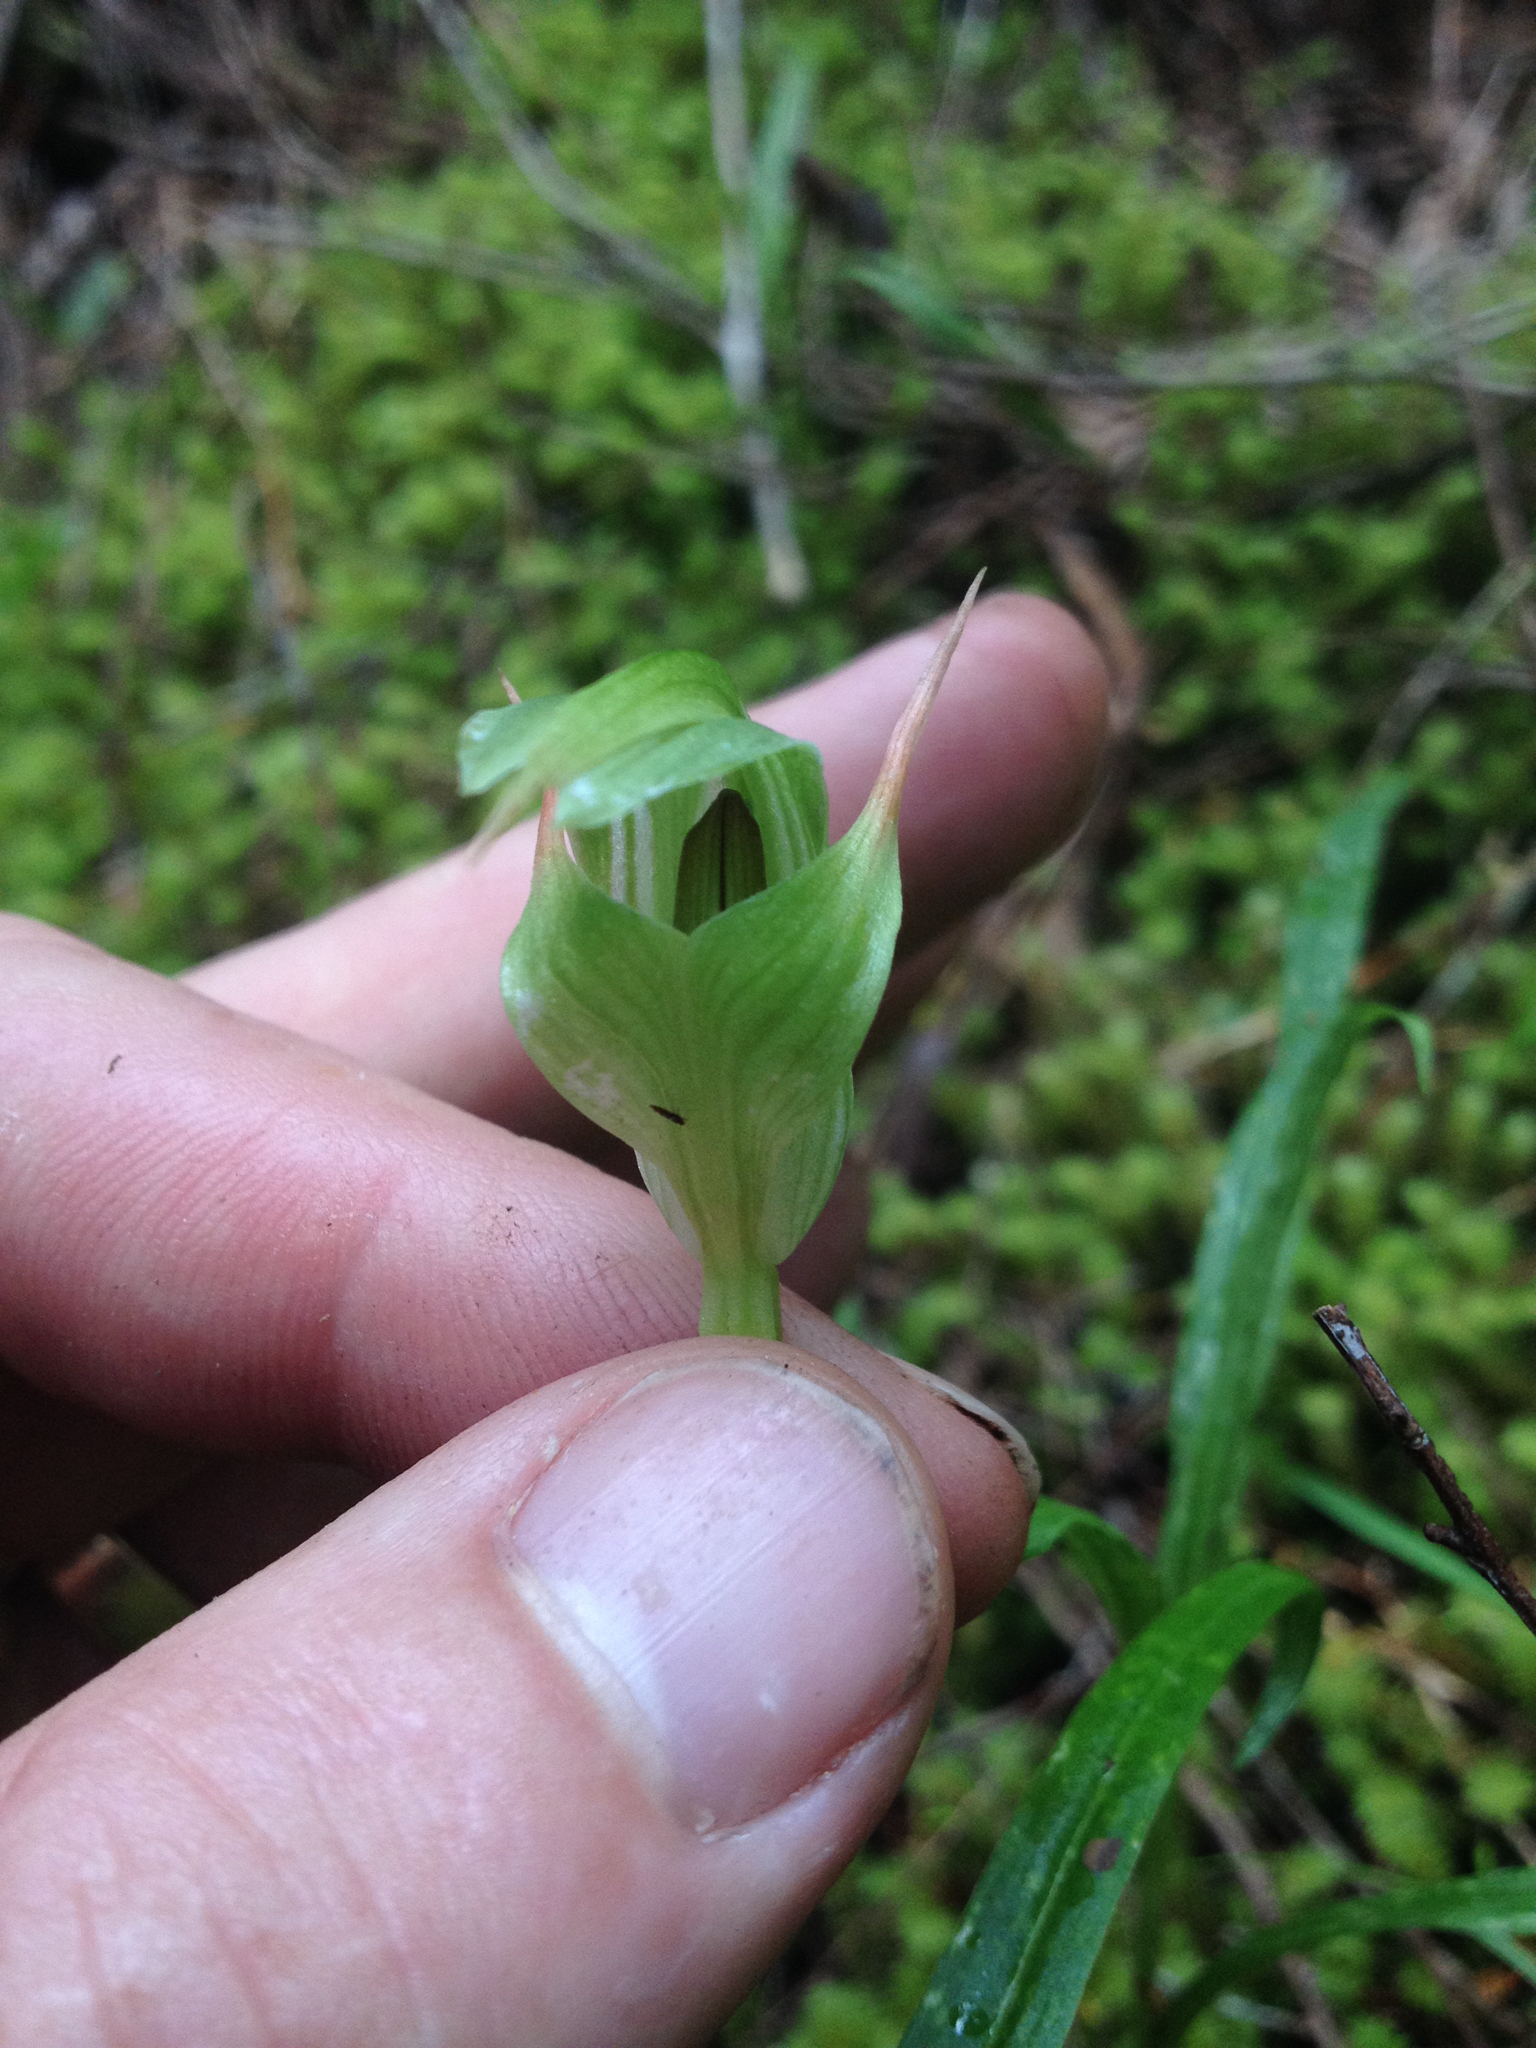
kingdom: Plantae
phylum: Tracheophyta
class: Liliopsida
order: Asparagales
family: Orchidaceae
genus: Pterostylis
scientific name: Pterostylis montana
